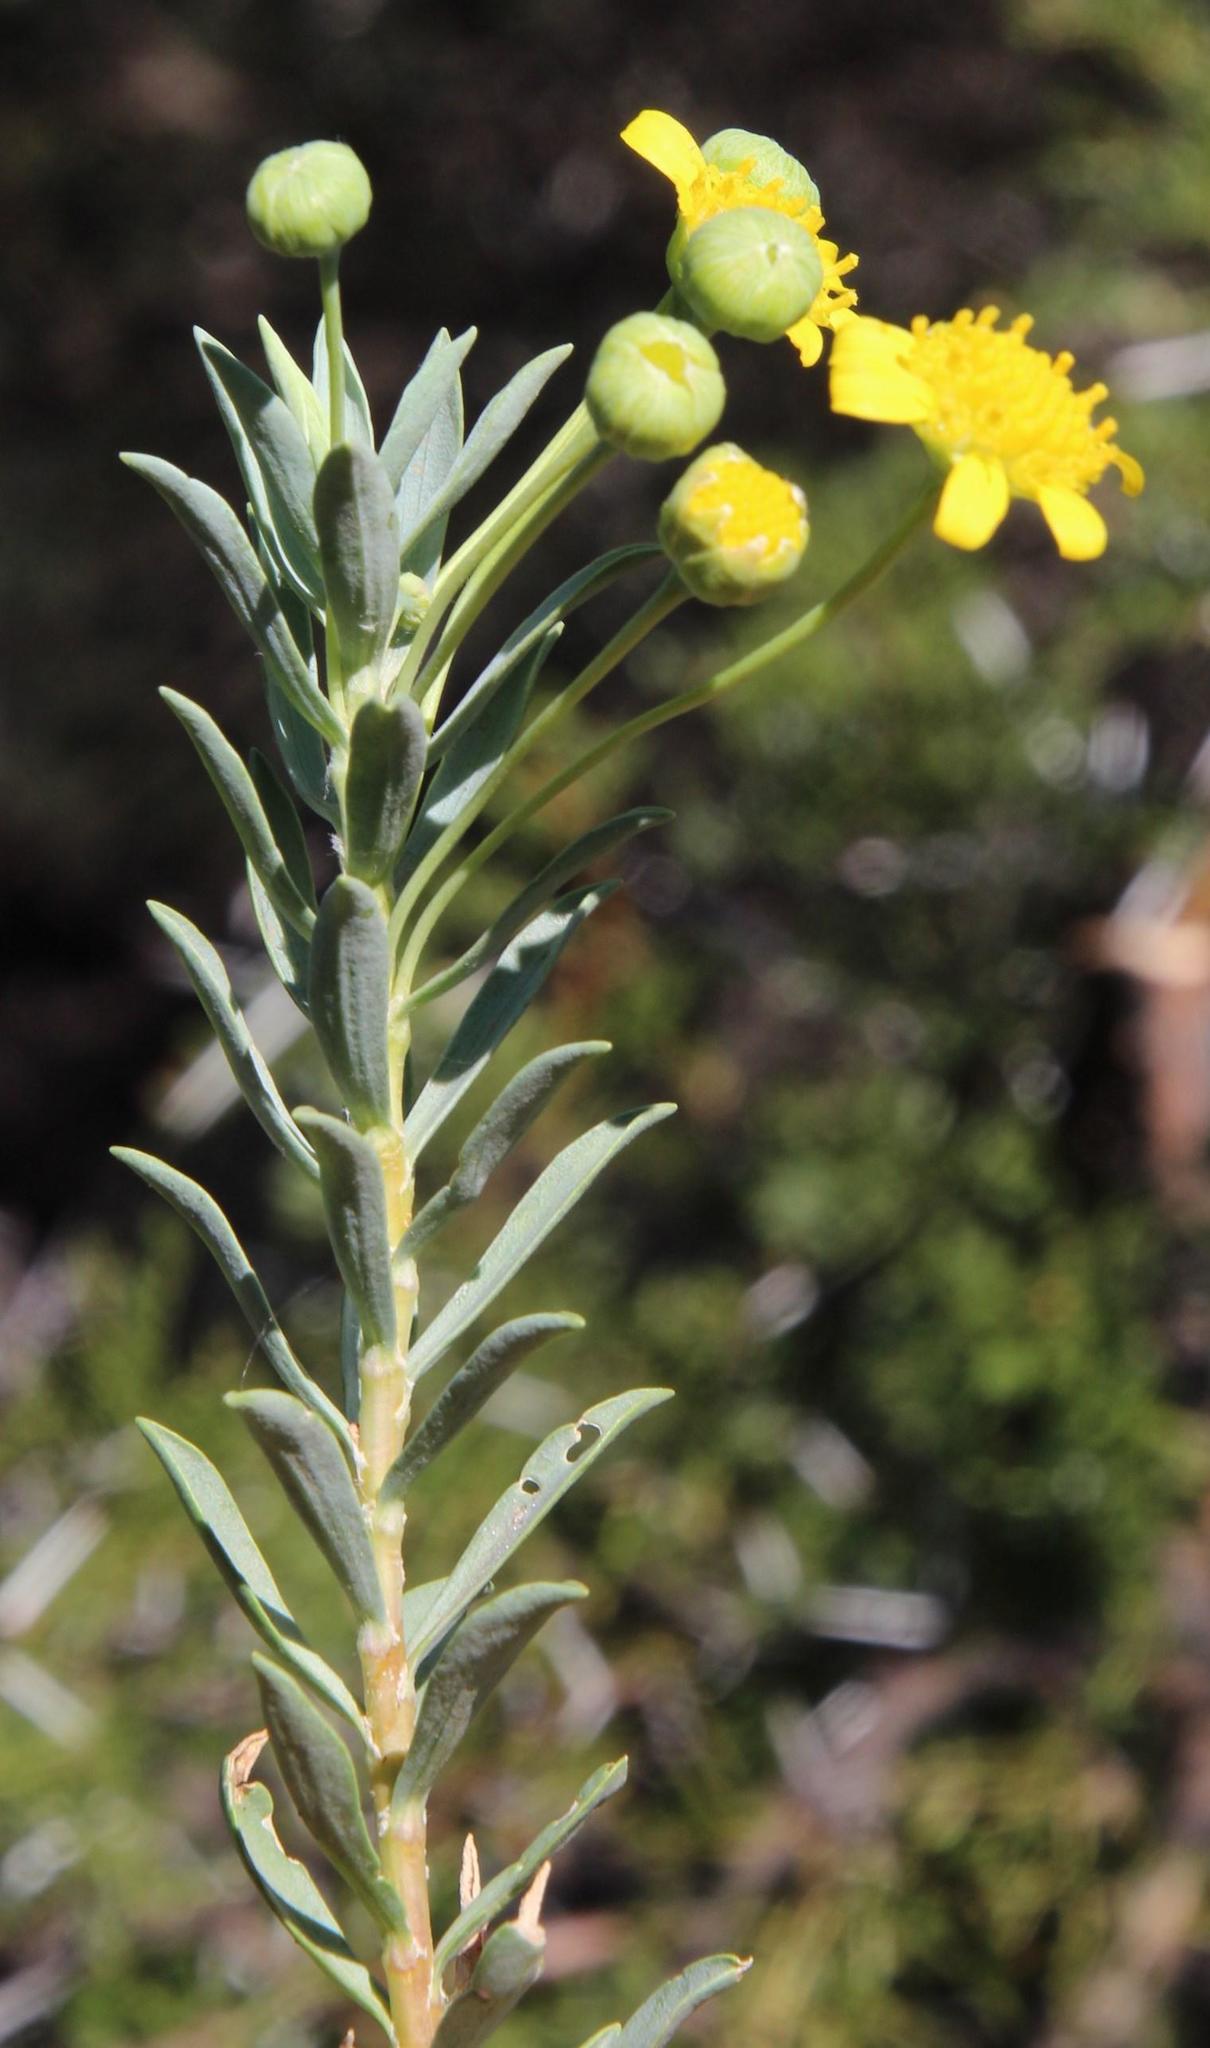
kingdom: Plantae
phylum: Tracheophyta
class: Magnoliopsida
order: Asterales
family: Asteraceae
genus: Euryops
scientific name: Euryops lateriflorus
